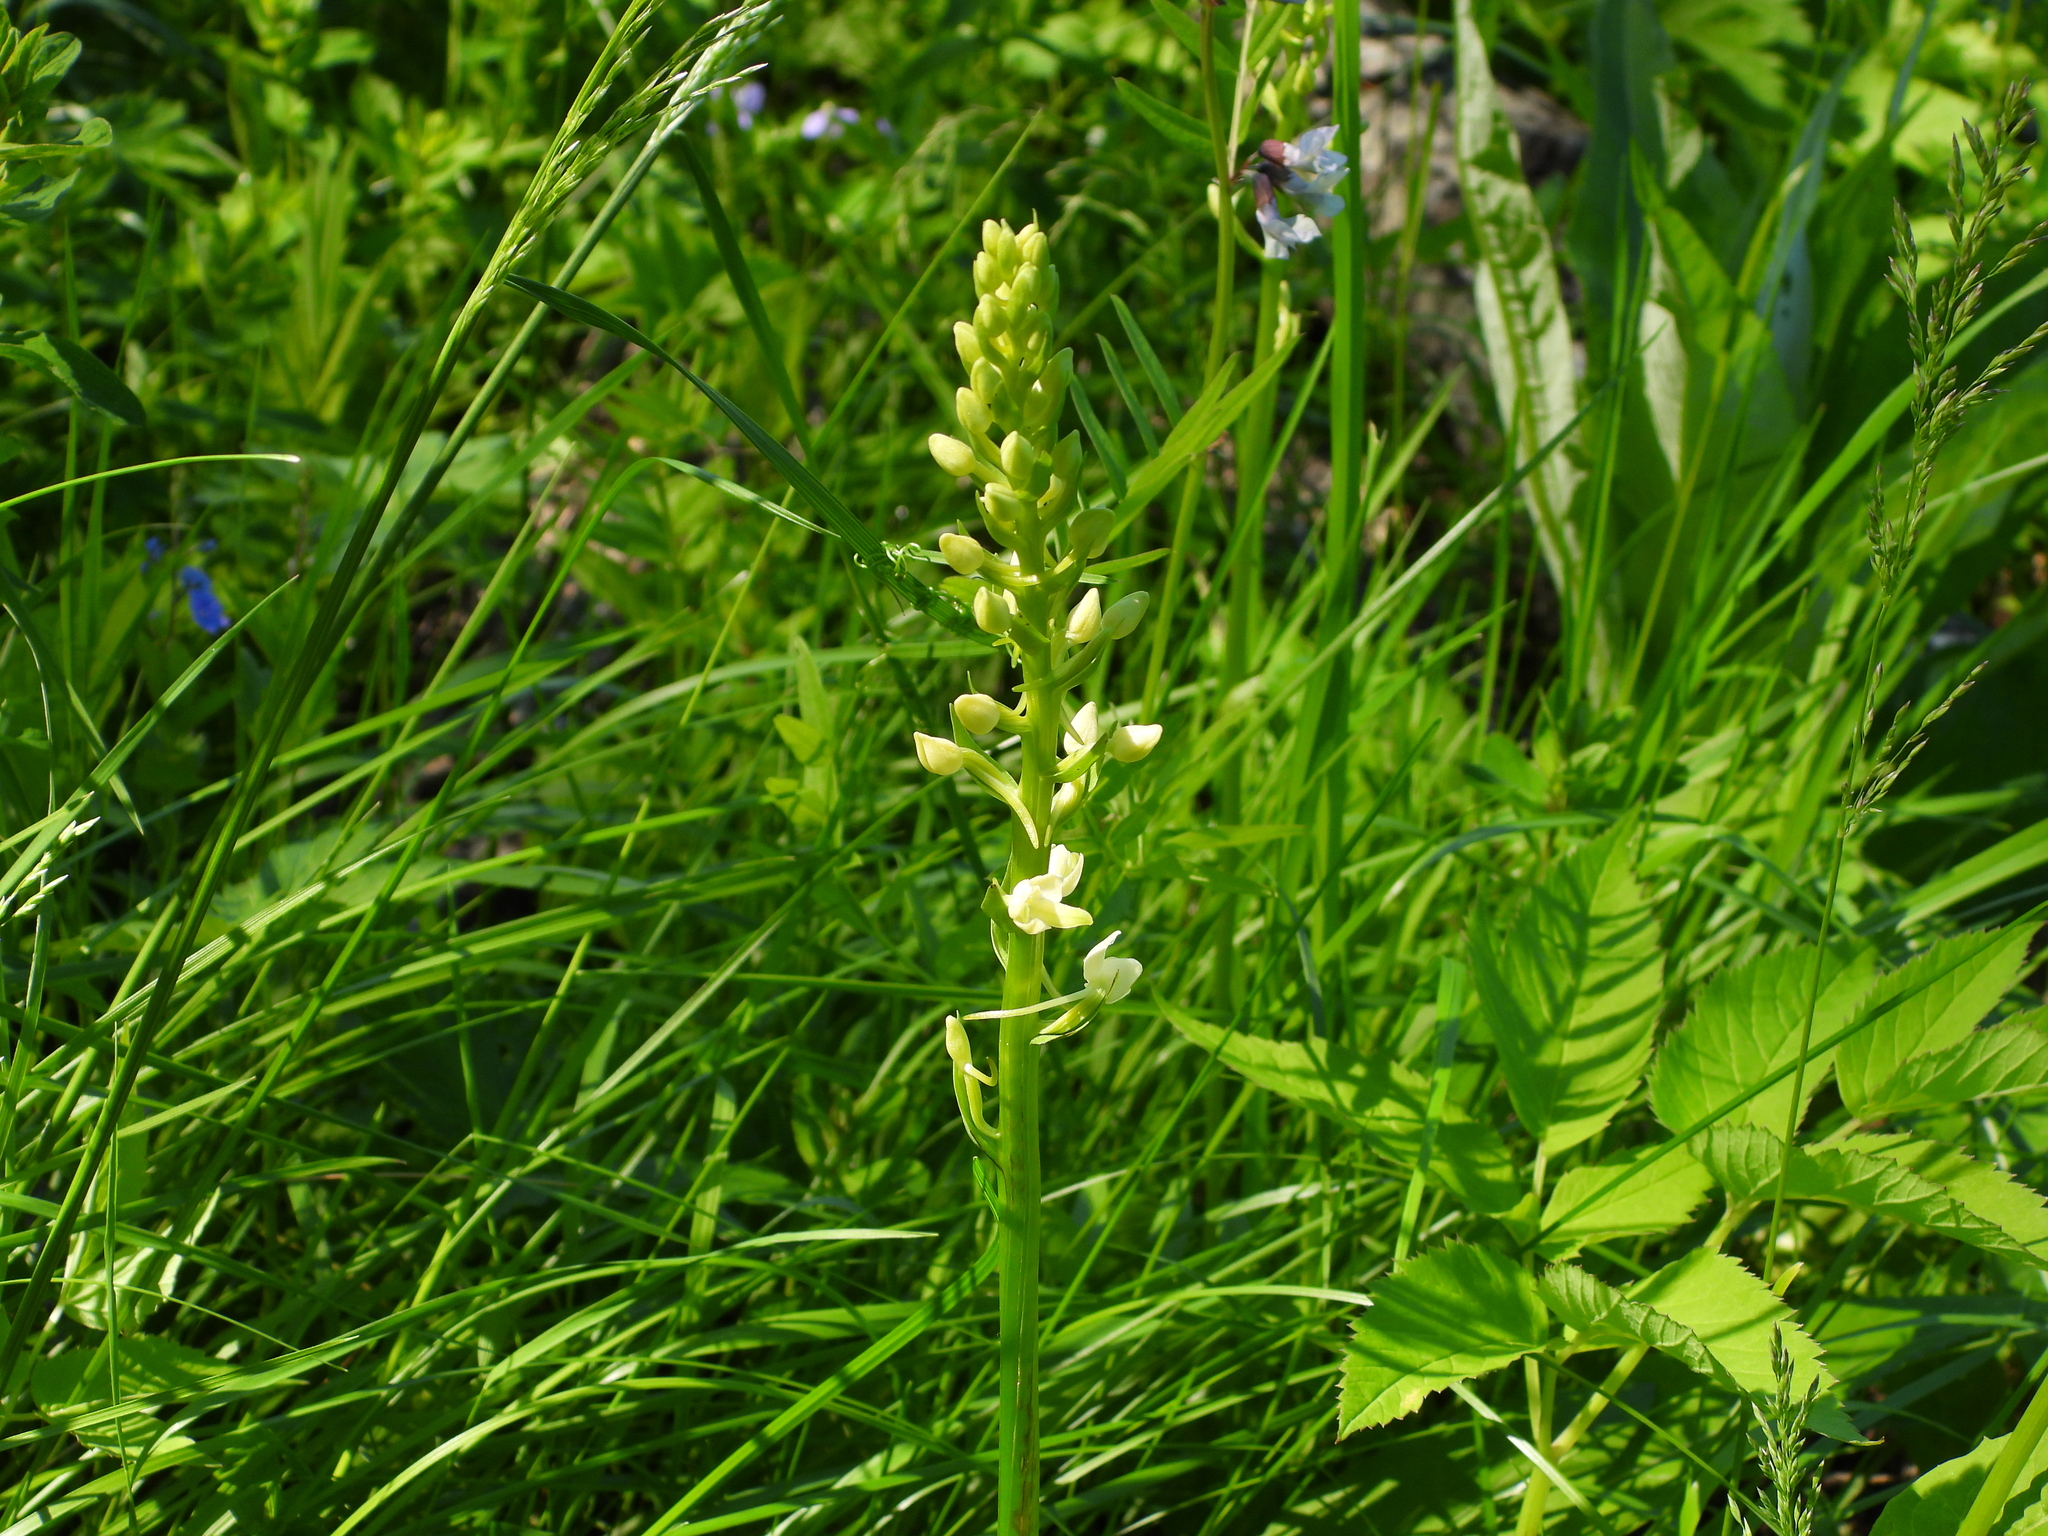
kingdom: Plantae
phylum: Tracheophyta
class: Liliopsida
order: Asparagales
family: Orchidaceae
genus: Platanthera
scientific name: Platanthera bifolia
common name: Lesser butterfly-orchid
